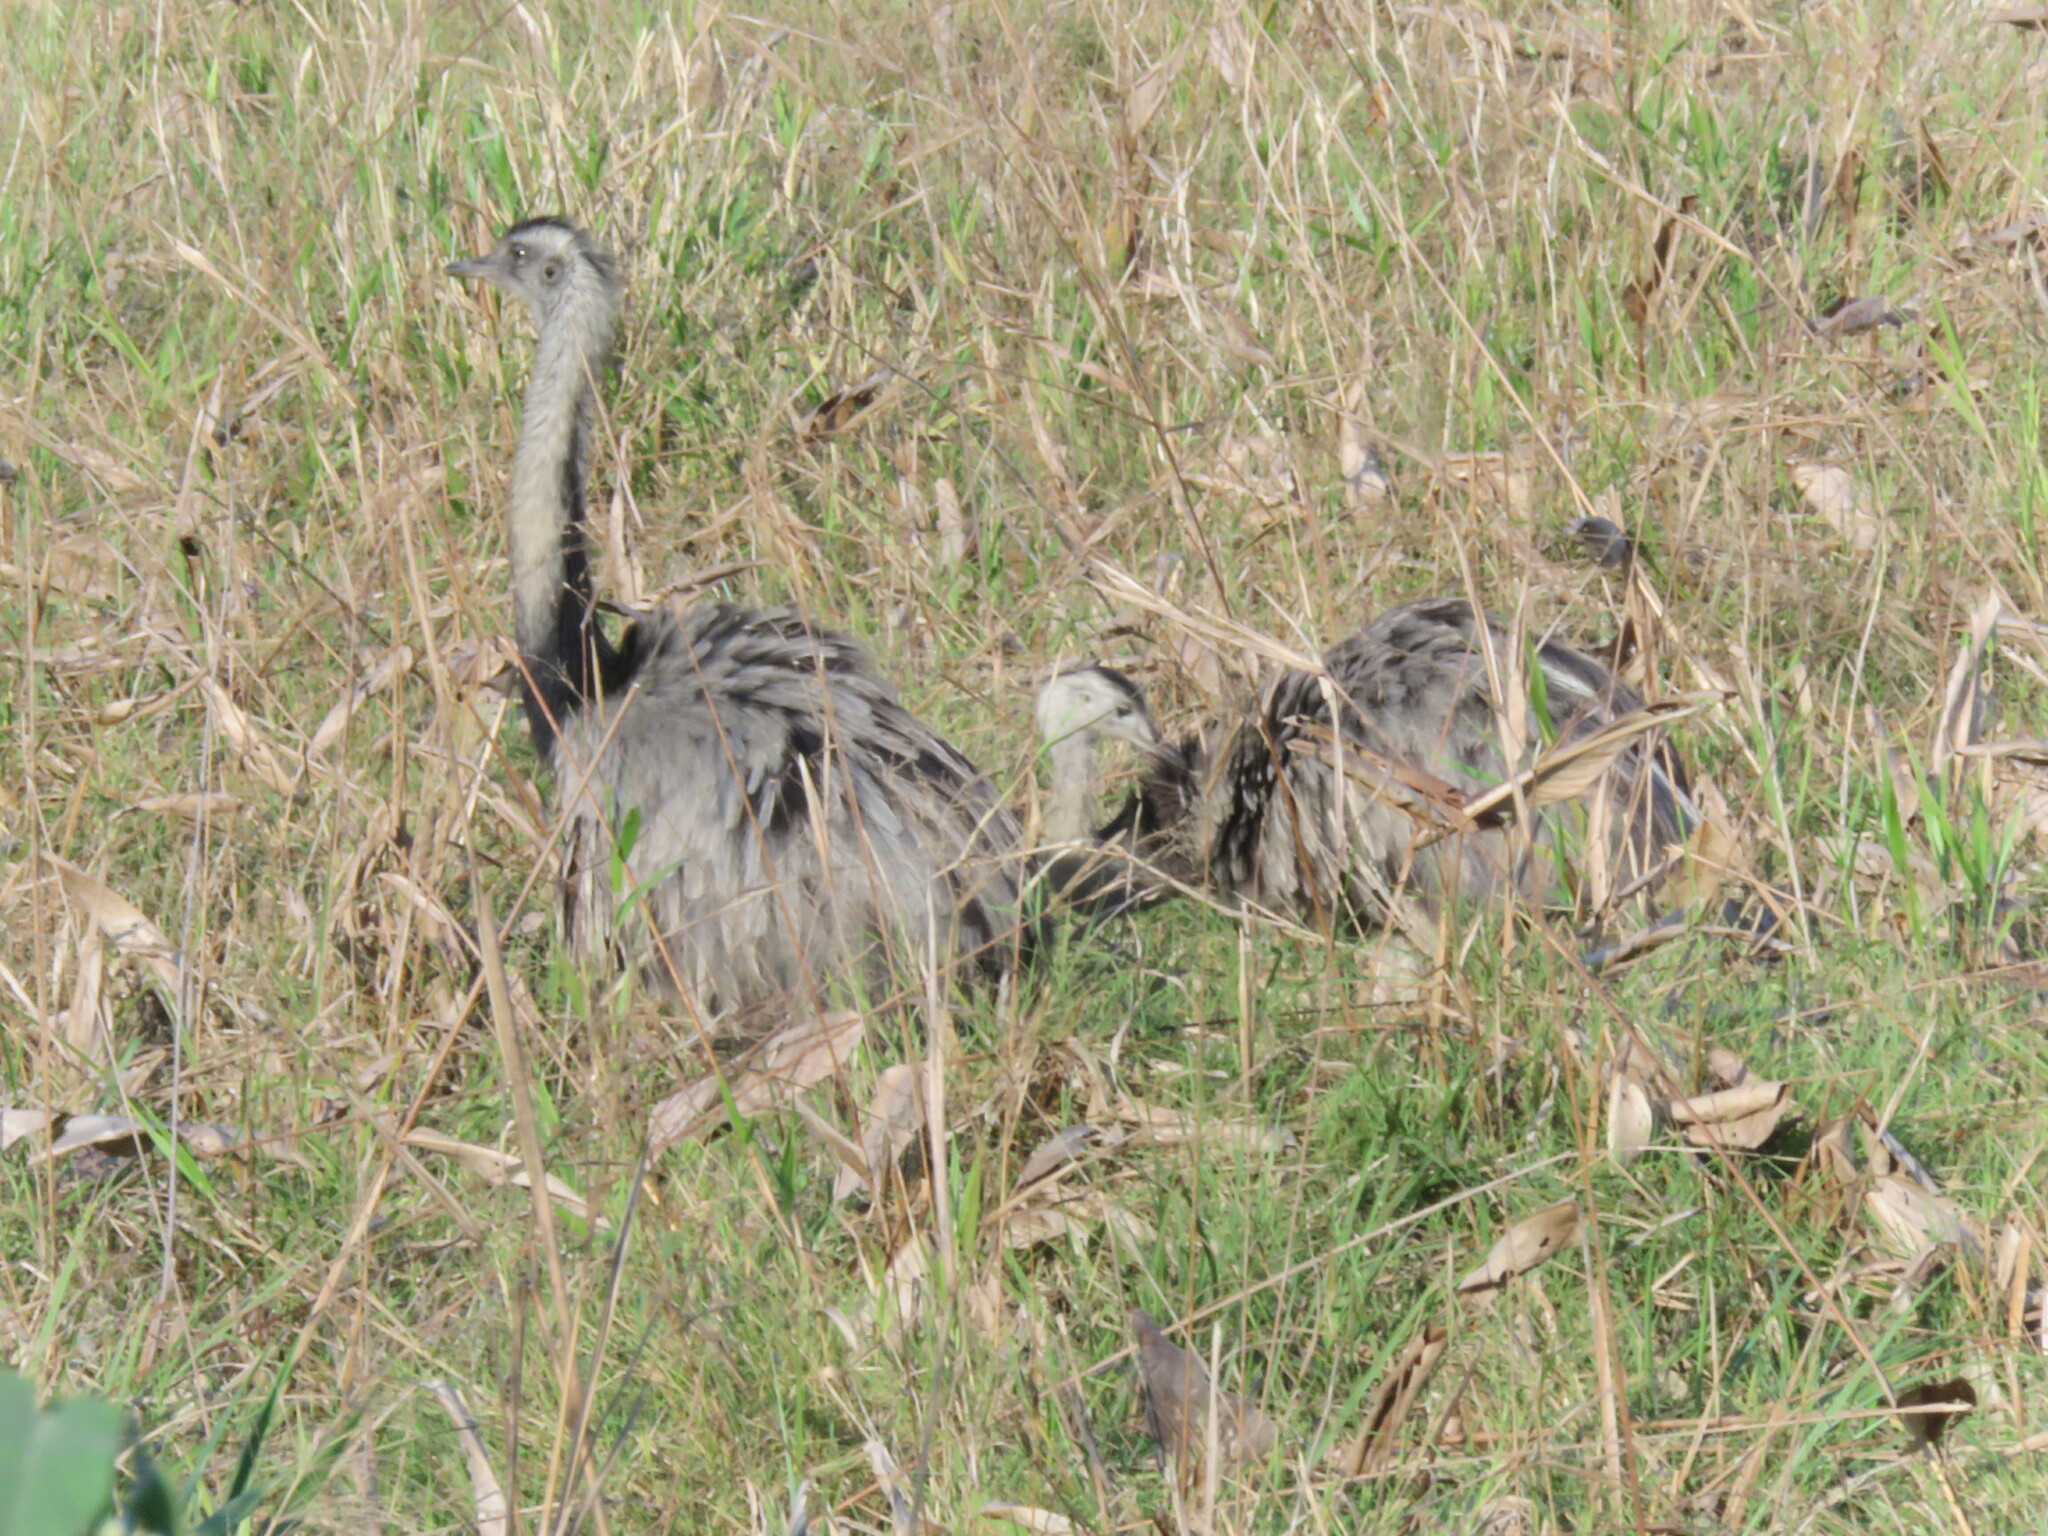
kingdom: Animalia
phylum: Chordata
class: Aves
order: Rheiformes
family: Rheidae
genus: Rhea
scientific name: Rhea americana
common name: Greater rhea
